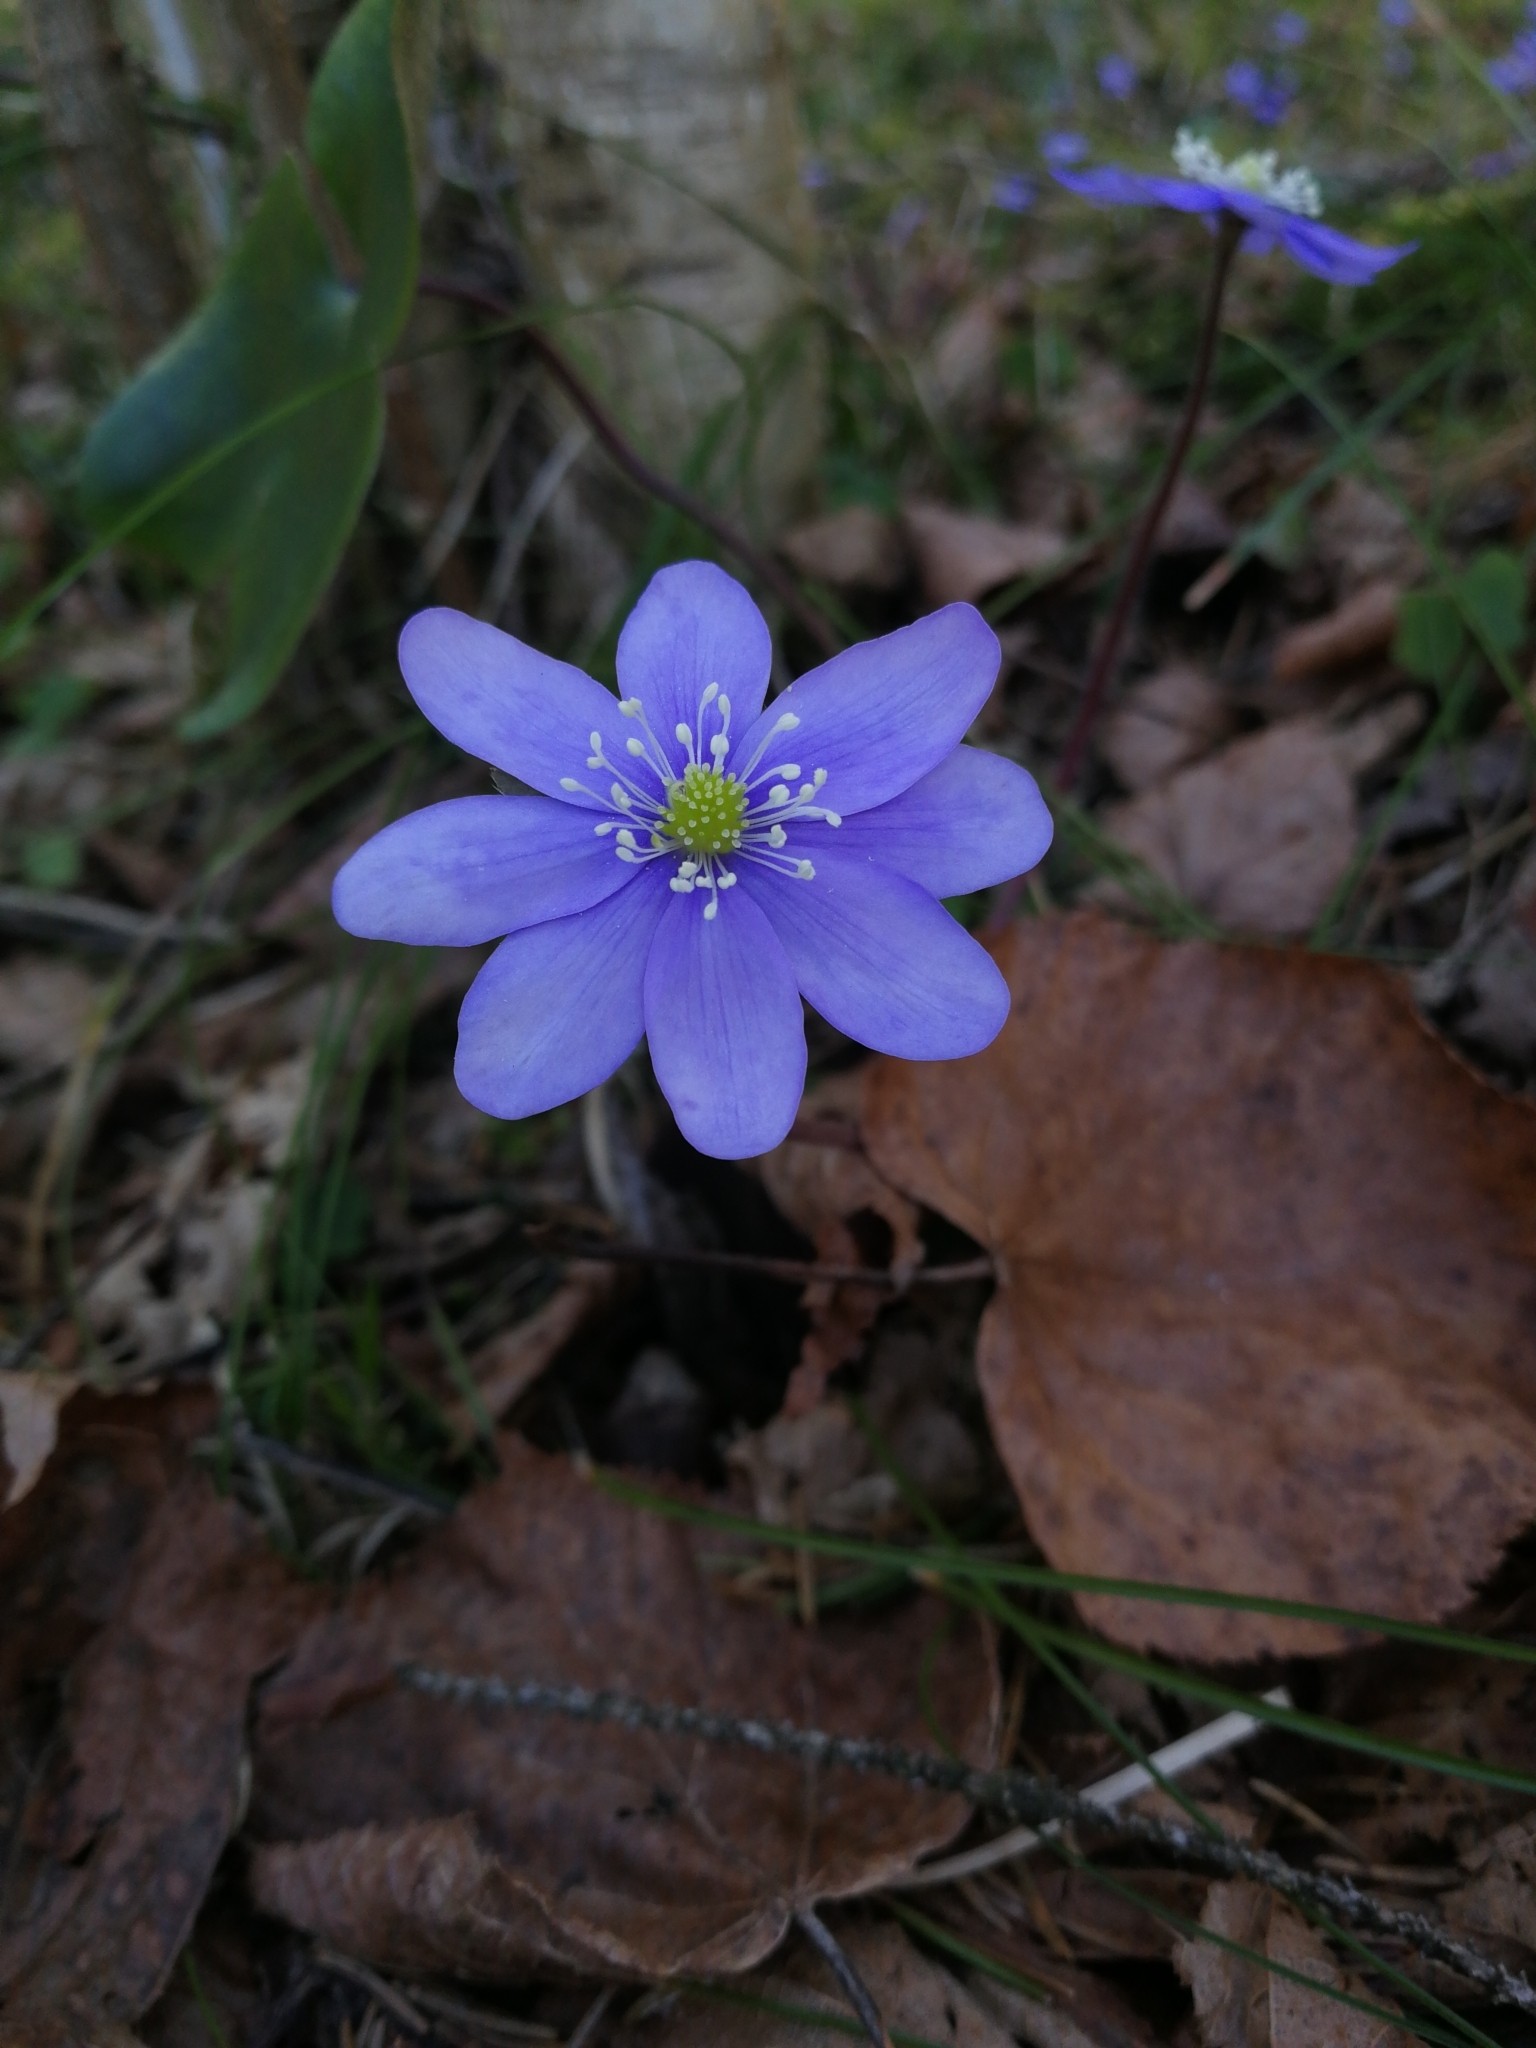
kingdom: Plantae
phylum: Tracheophyta
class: Magnoliopsida
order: Ranunculales
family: Ranunculaceae
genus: Hepatica
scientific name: Hepatica nobilis
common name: Liverleaf
